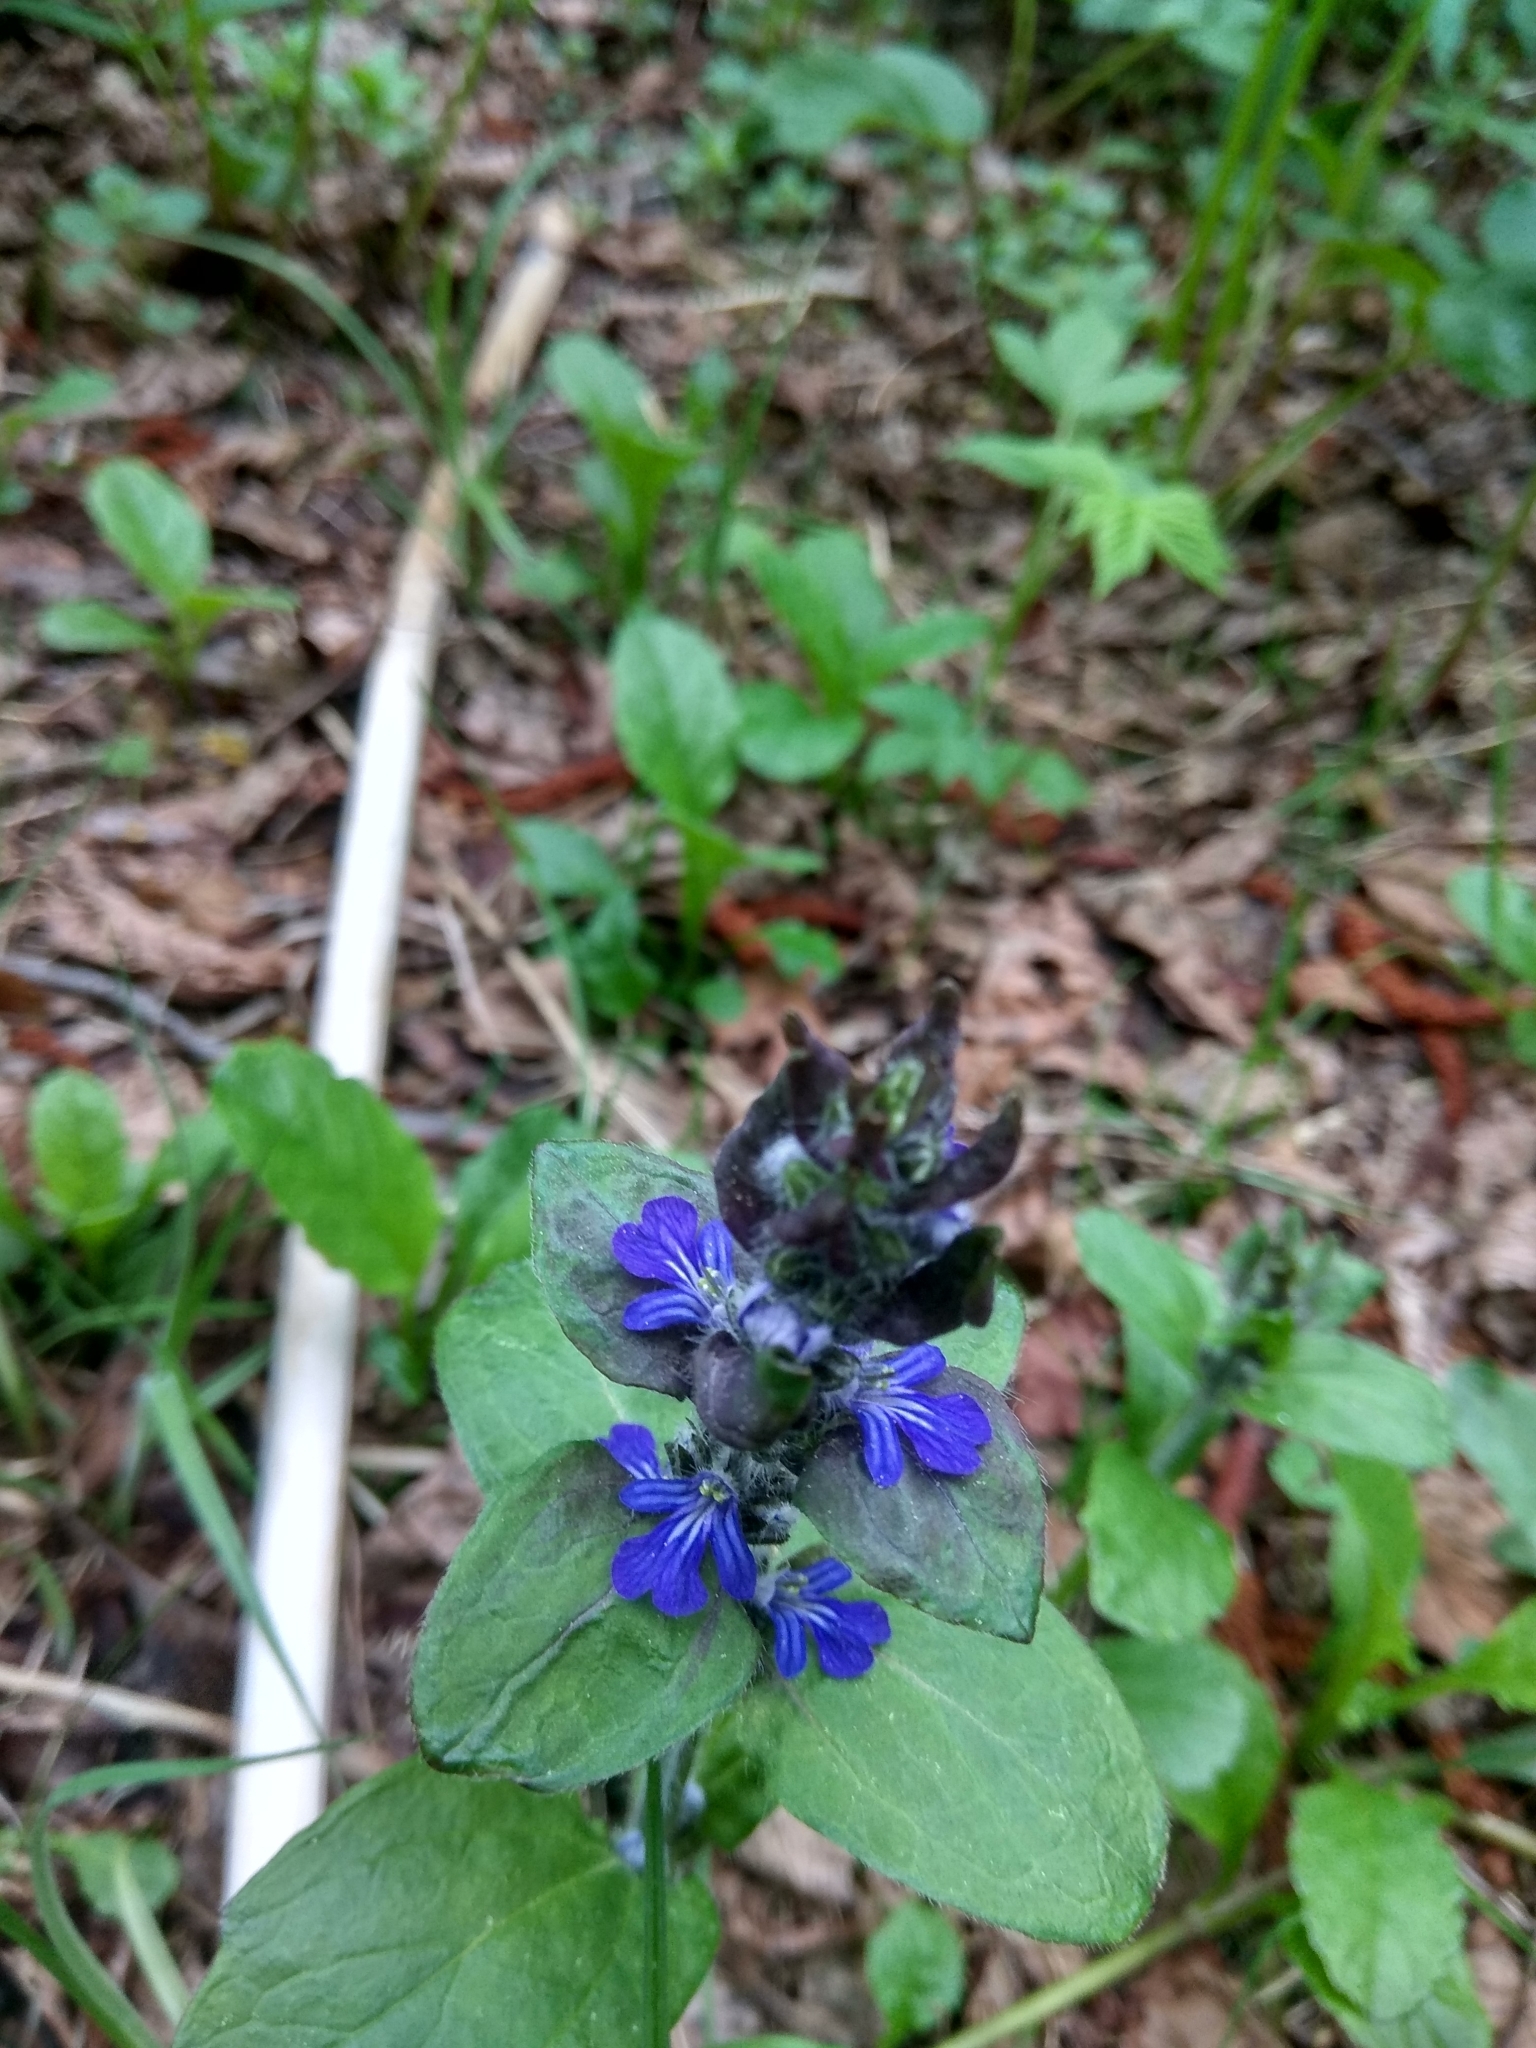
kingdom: Plantae
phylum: Tracheophyta
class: Magnoliopsida
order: Lamiales
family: Lamiaceae
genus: Ajuga
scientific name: Ajuga reptans
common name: Bugle
